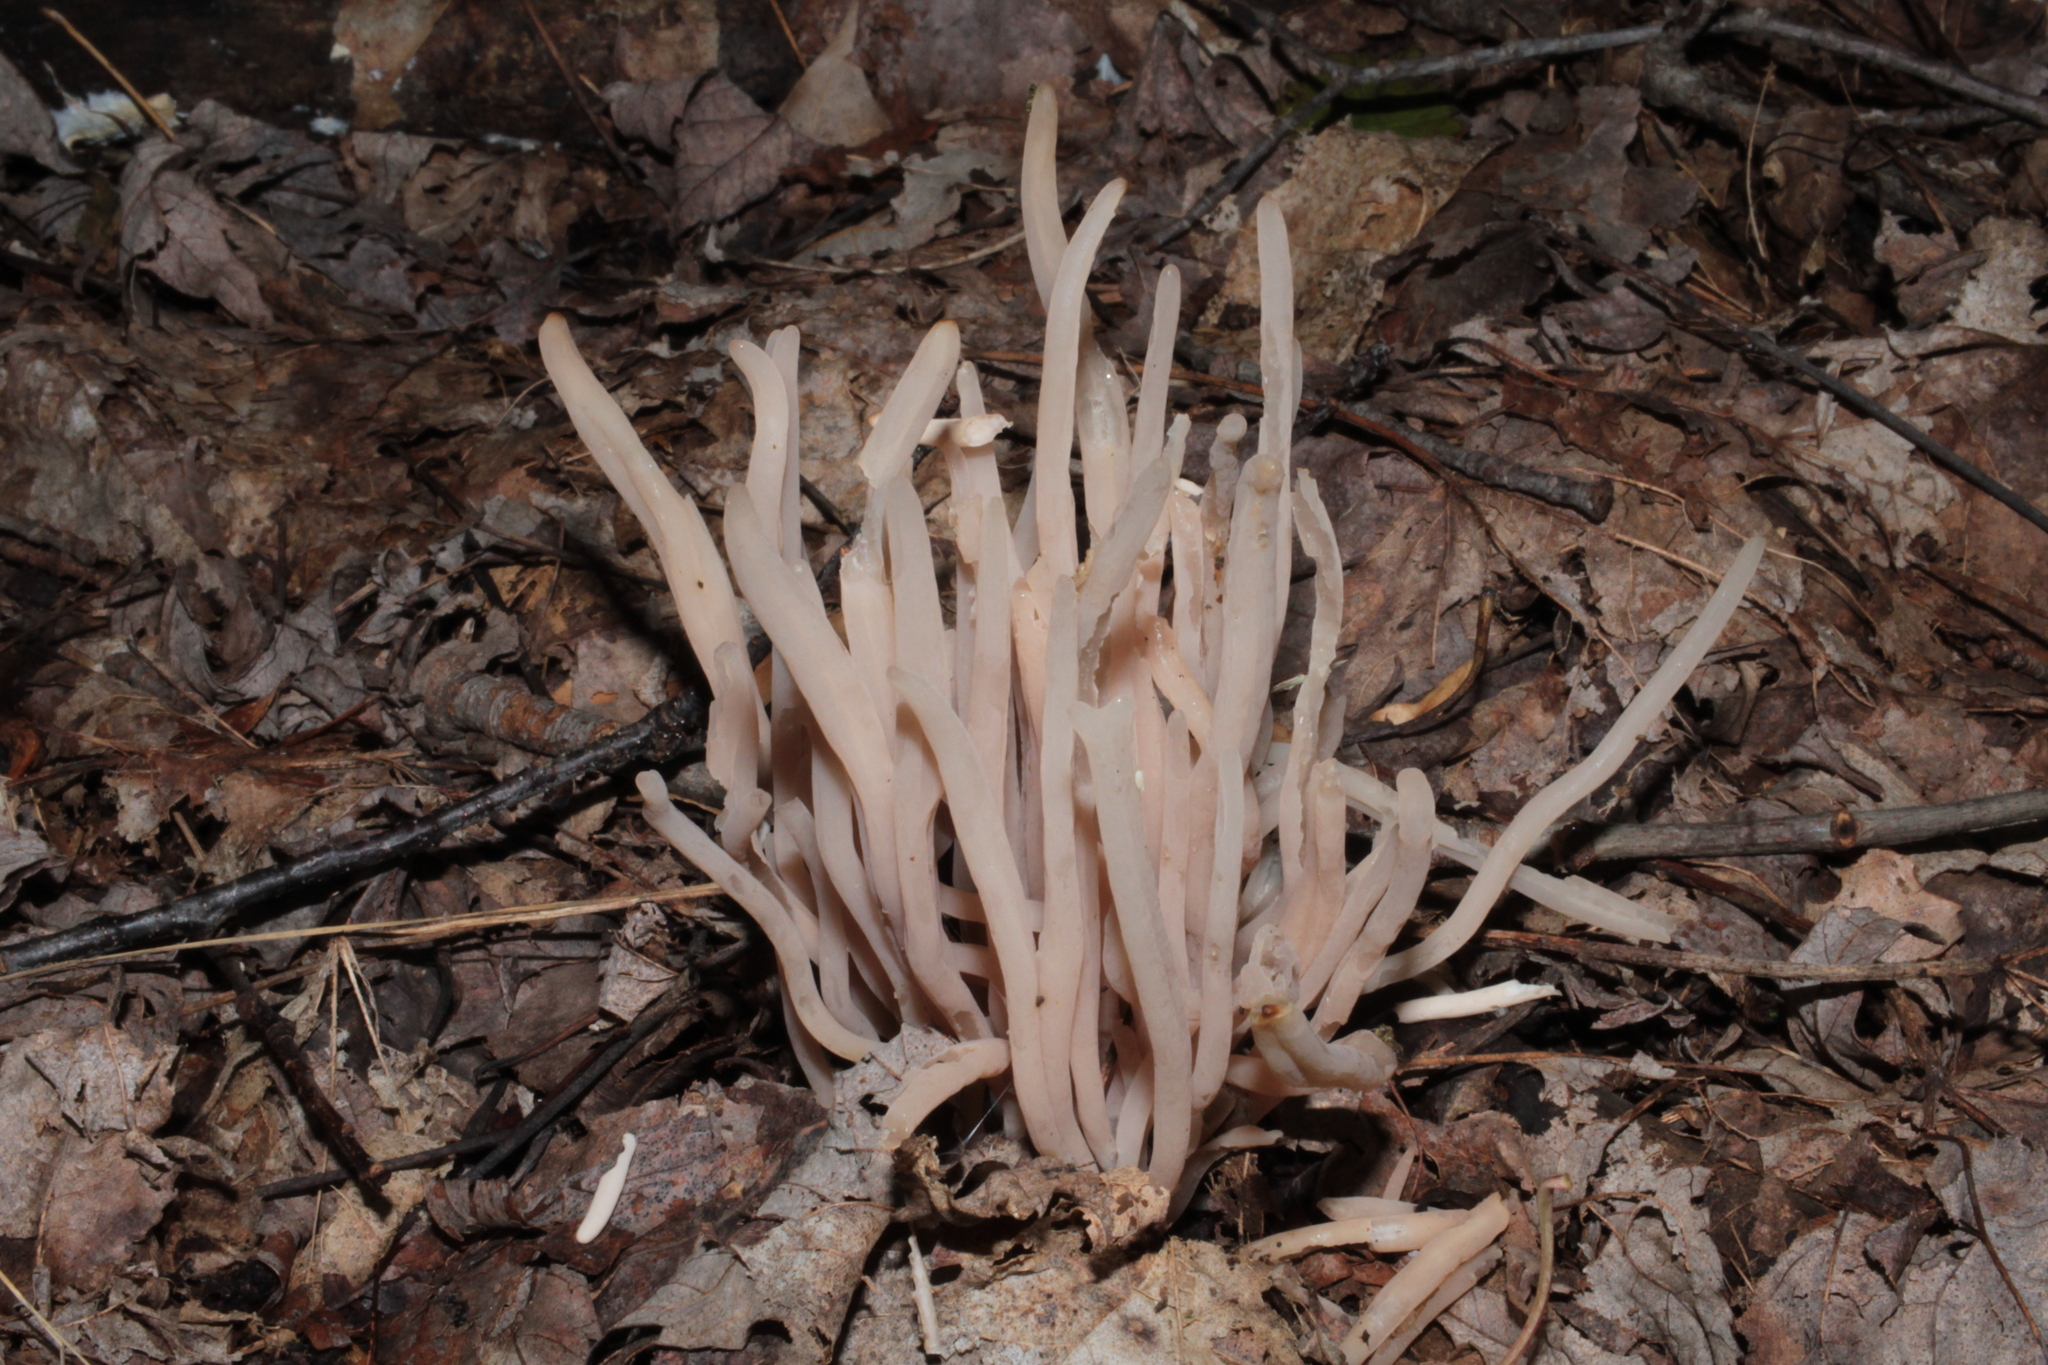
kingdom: Fungi
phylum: Basidiomycota
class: Agaricomycetes
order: Agaricales
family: Clavariaceae
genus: Clavaria
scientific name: Clavaria fumosa
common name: Smoky spindles
